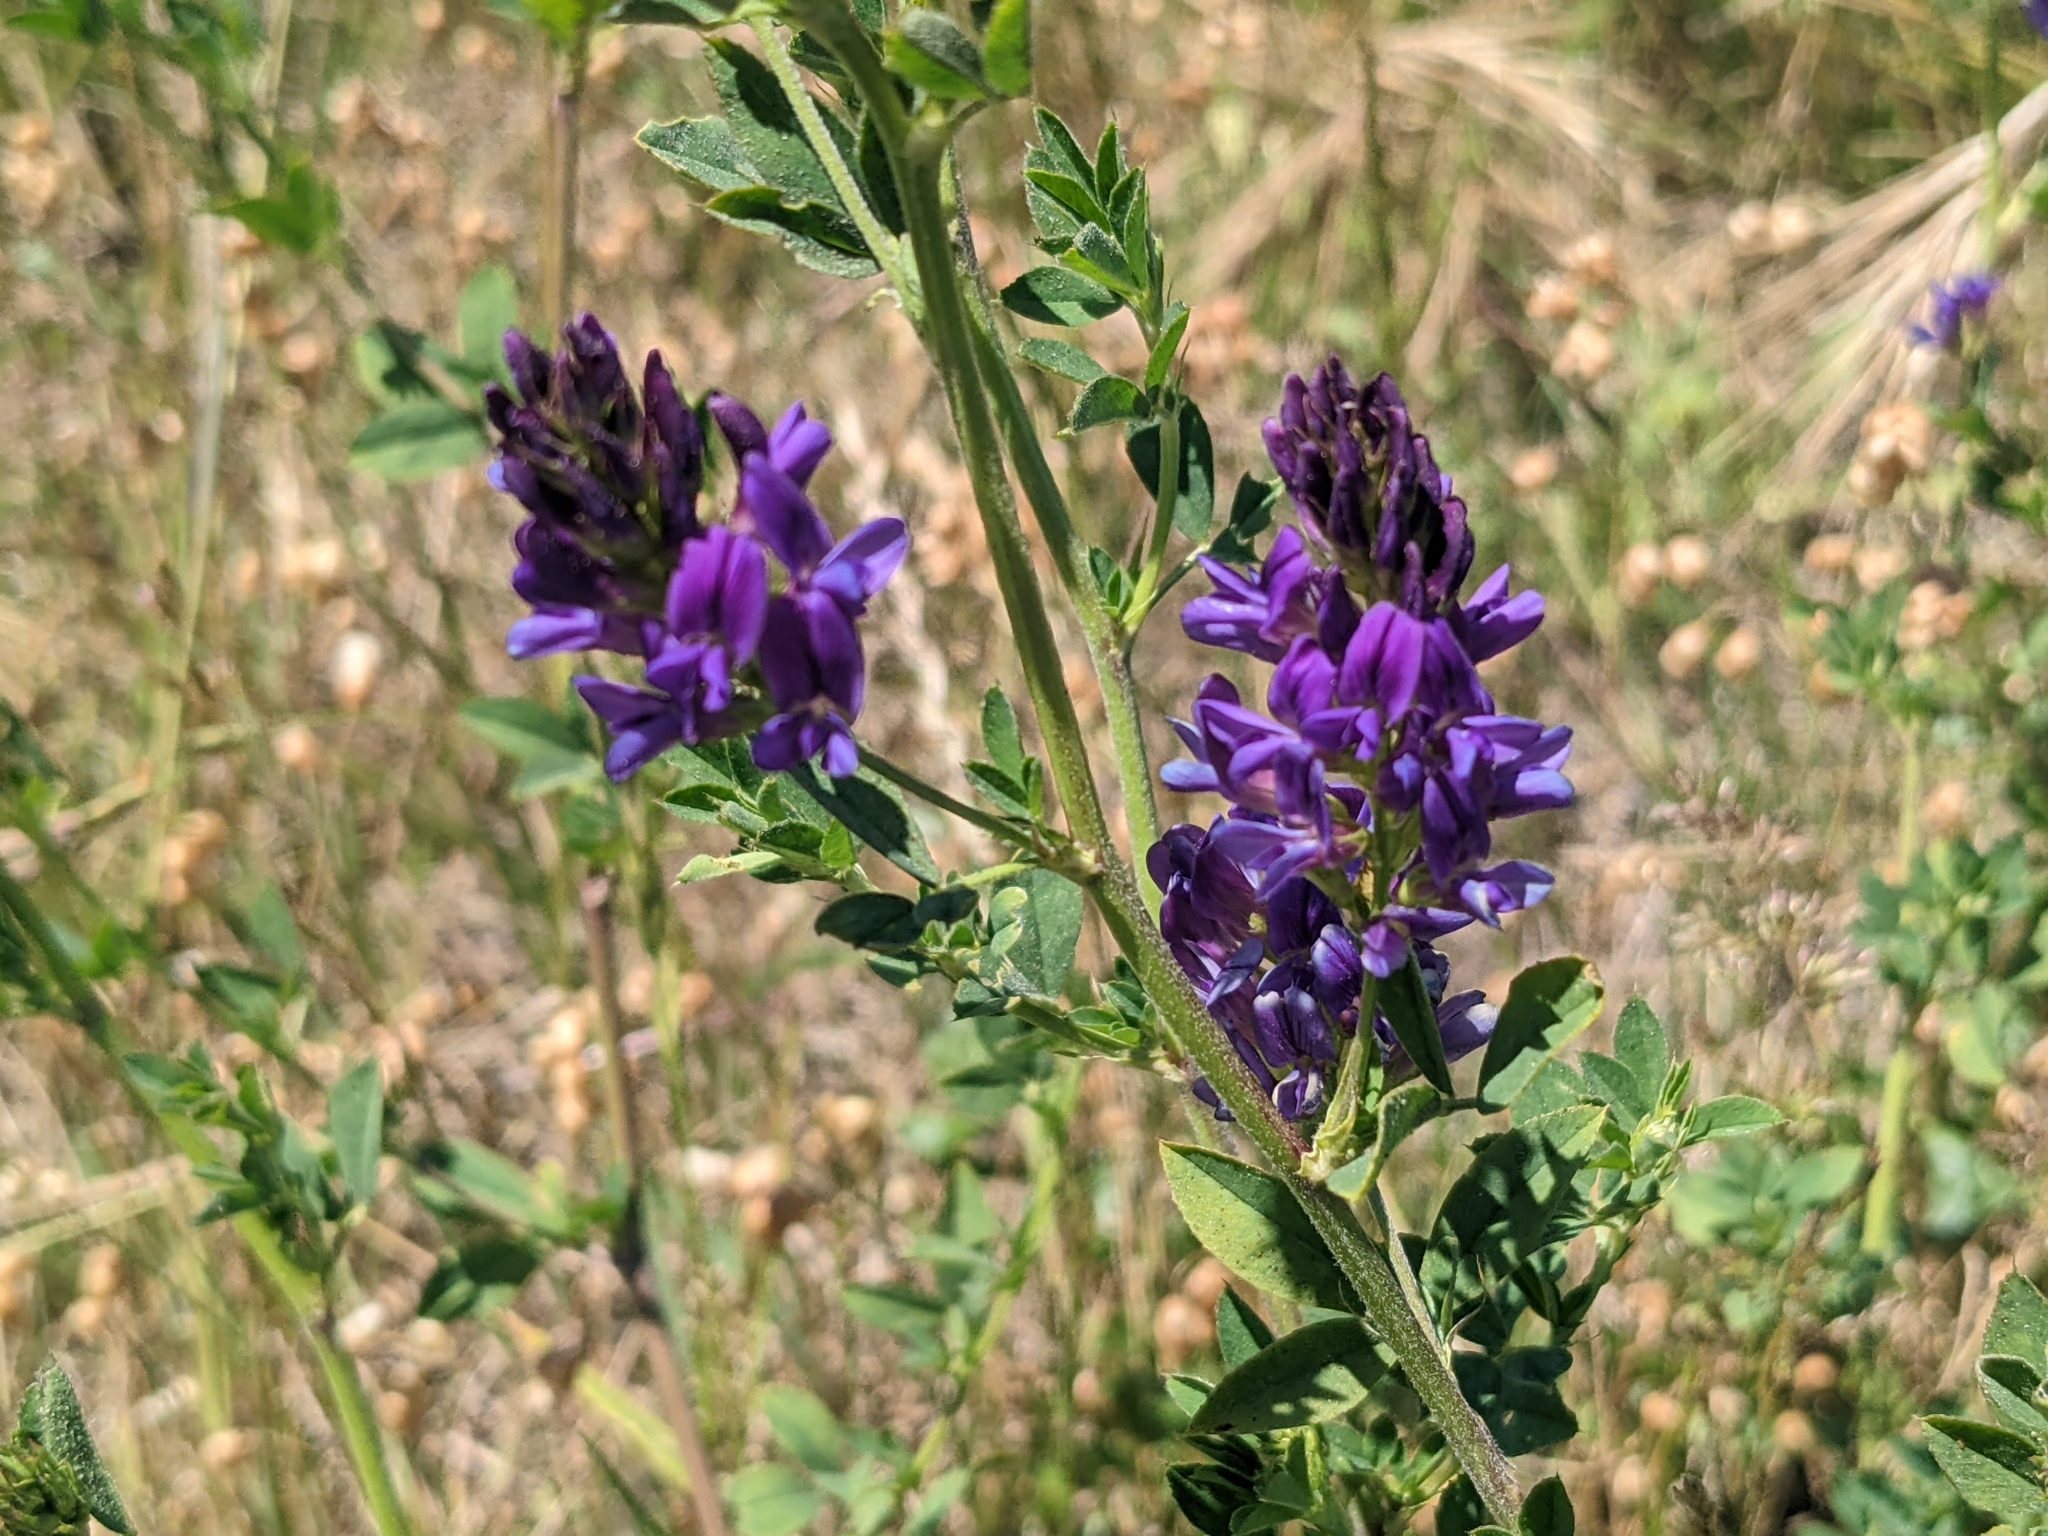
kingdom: Plantae
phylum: Tracheophyta
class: Magnoliopsida
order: Fabales
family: Fabaceae
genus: Medicago
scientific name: Medicago sativa
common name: Alfalfa
